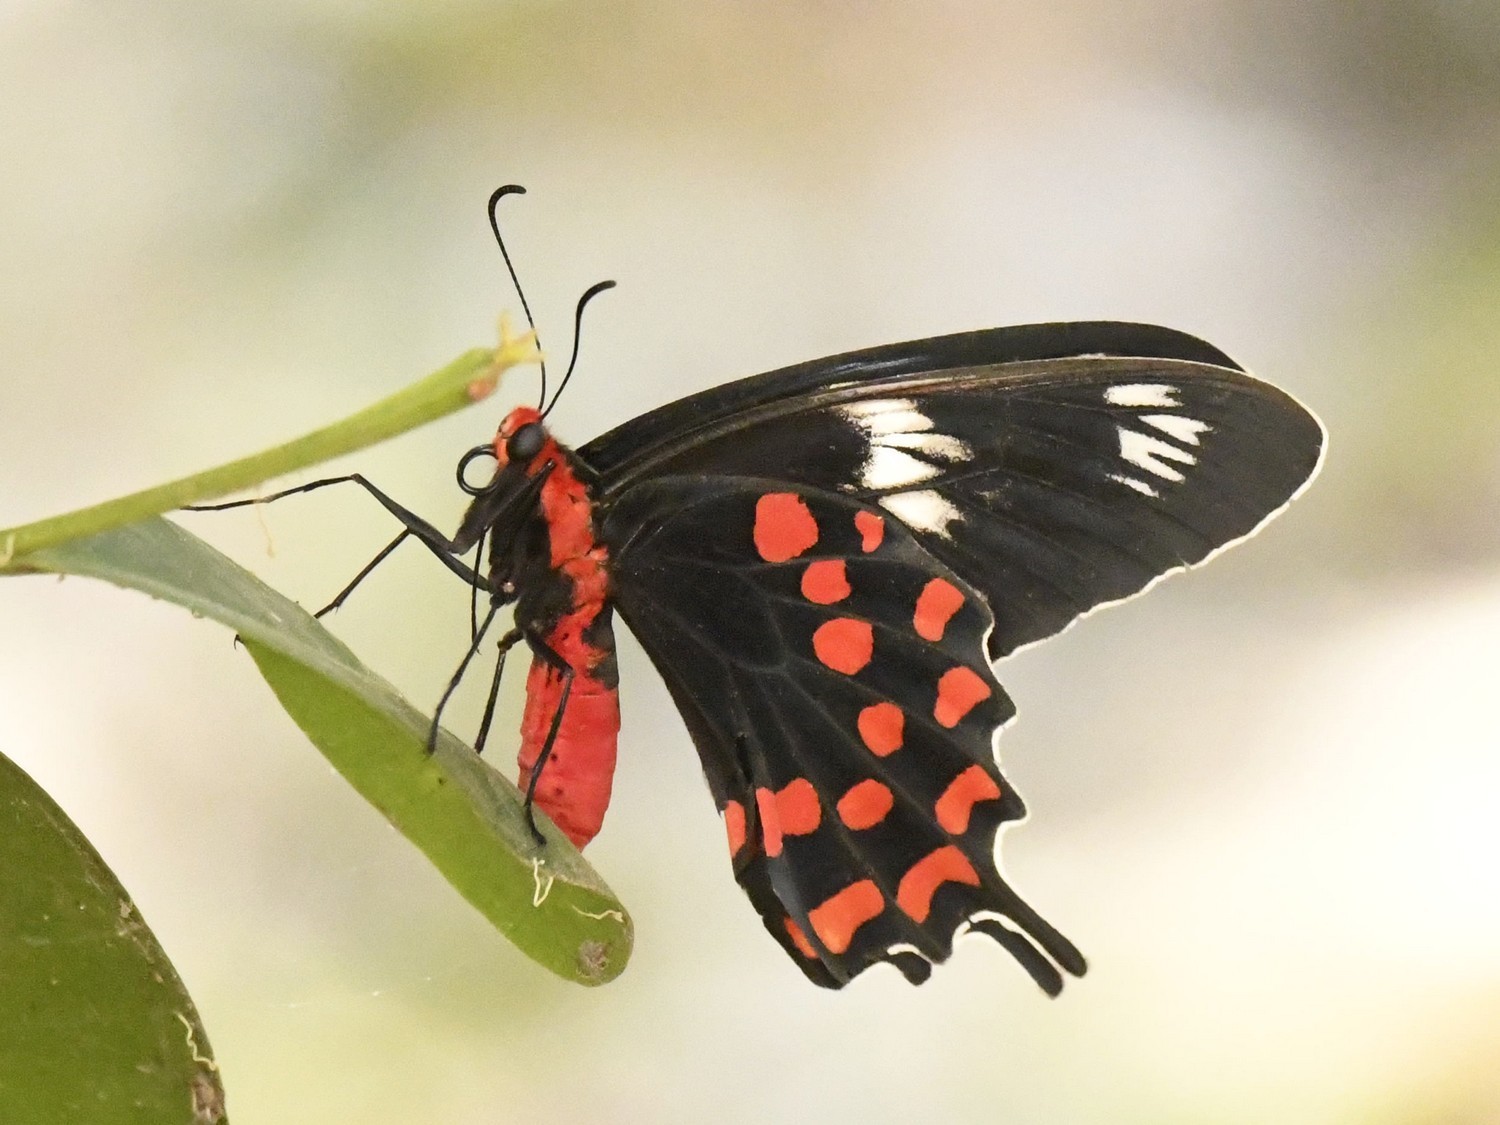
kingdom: Animalia
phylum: Arthropoda
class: Insecta
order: Lepidoptera
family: Papilionidae
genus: Pachliopta
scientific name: Pachliopta hector
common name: Crimson rose
